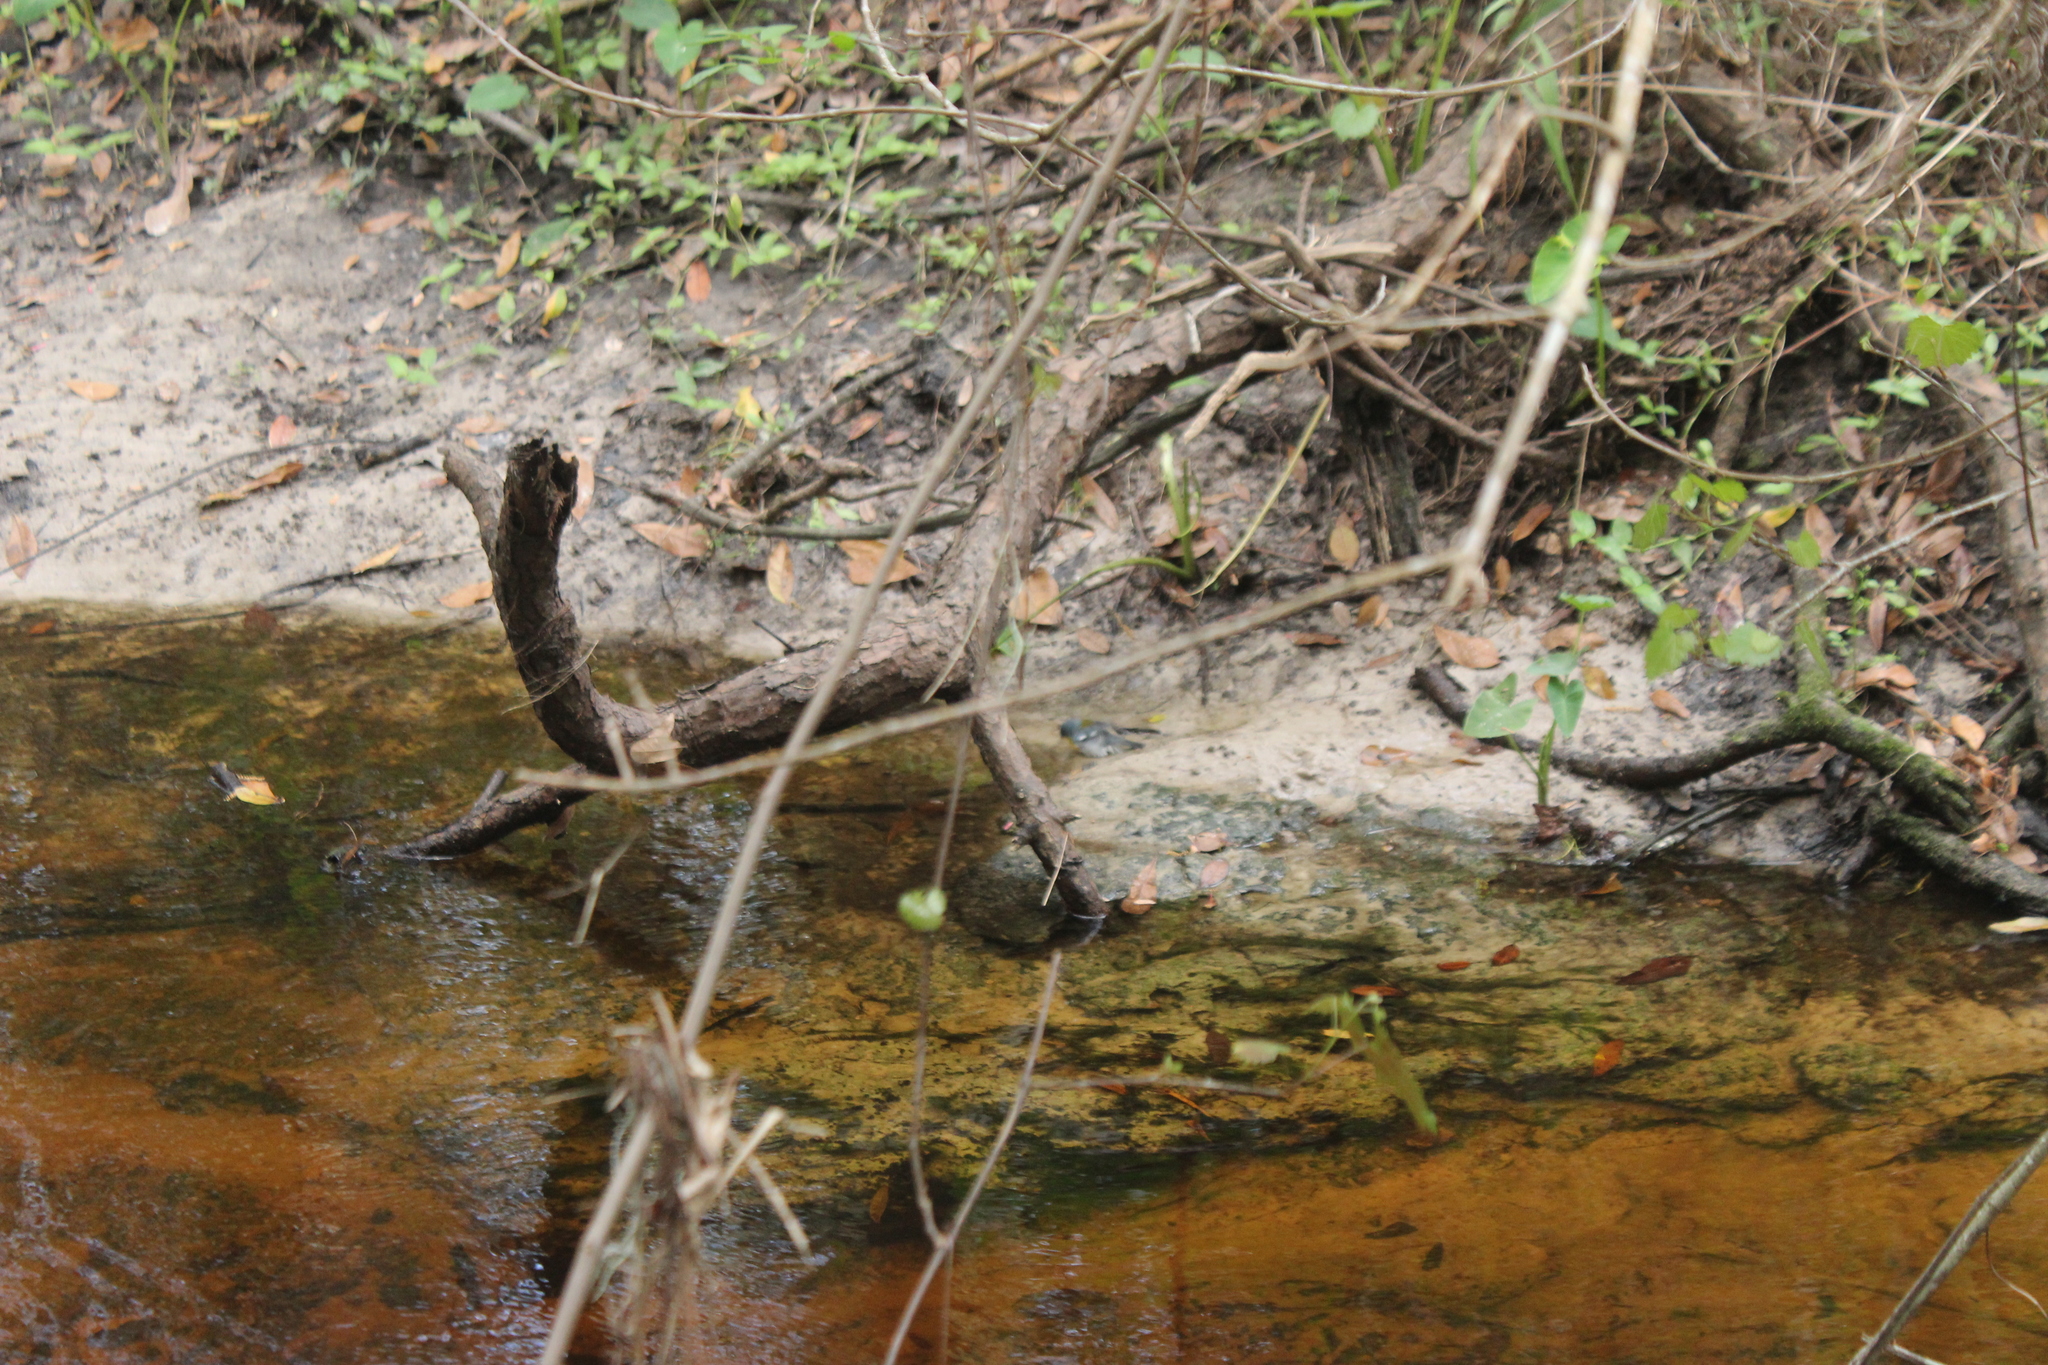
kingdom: Animalia
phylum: Chordata
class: Aves
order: Passeriformes
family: Parulidae
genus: Setophaga
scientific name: Setophaga americana
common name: Northern parula
